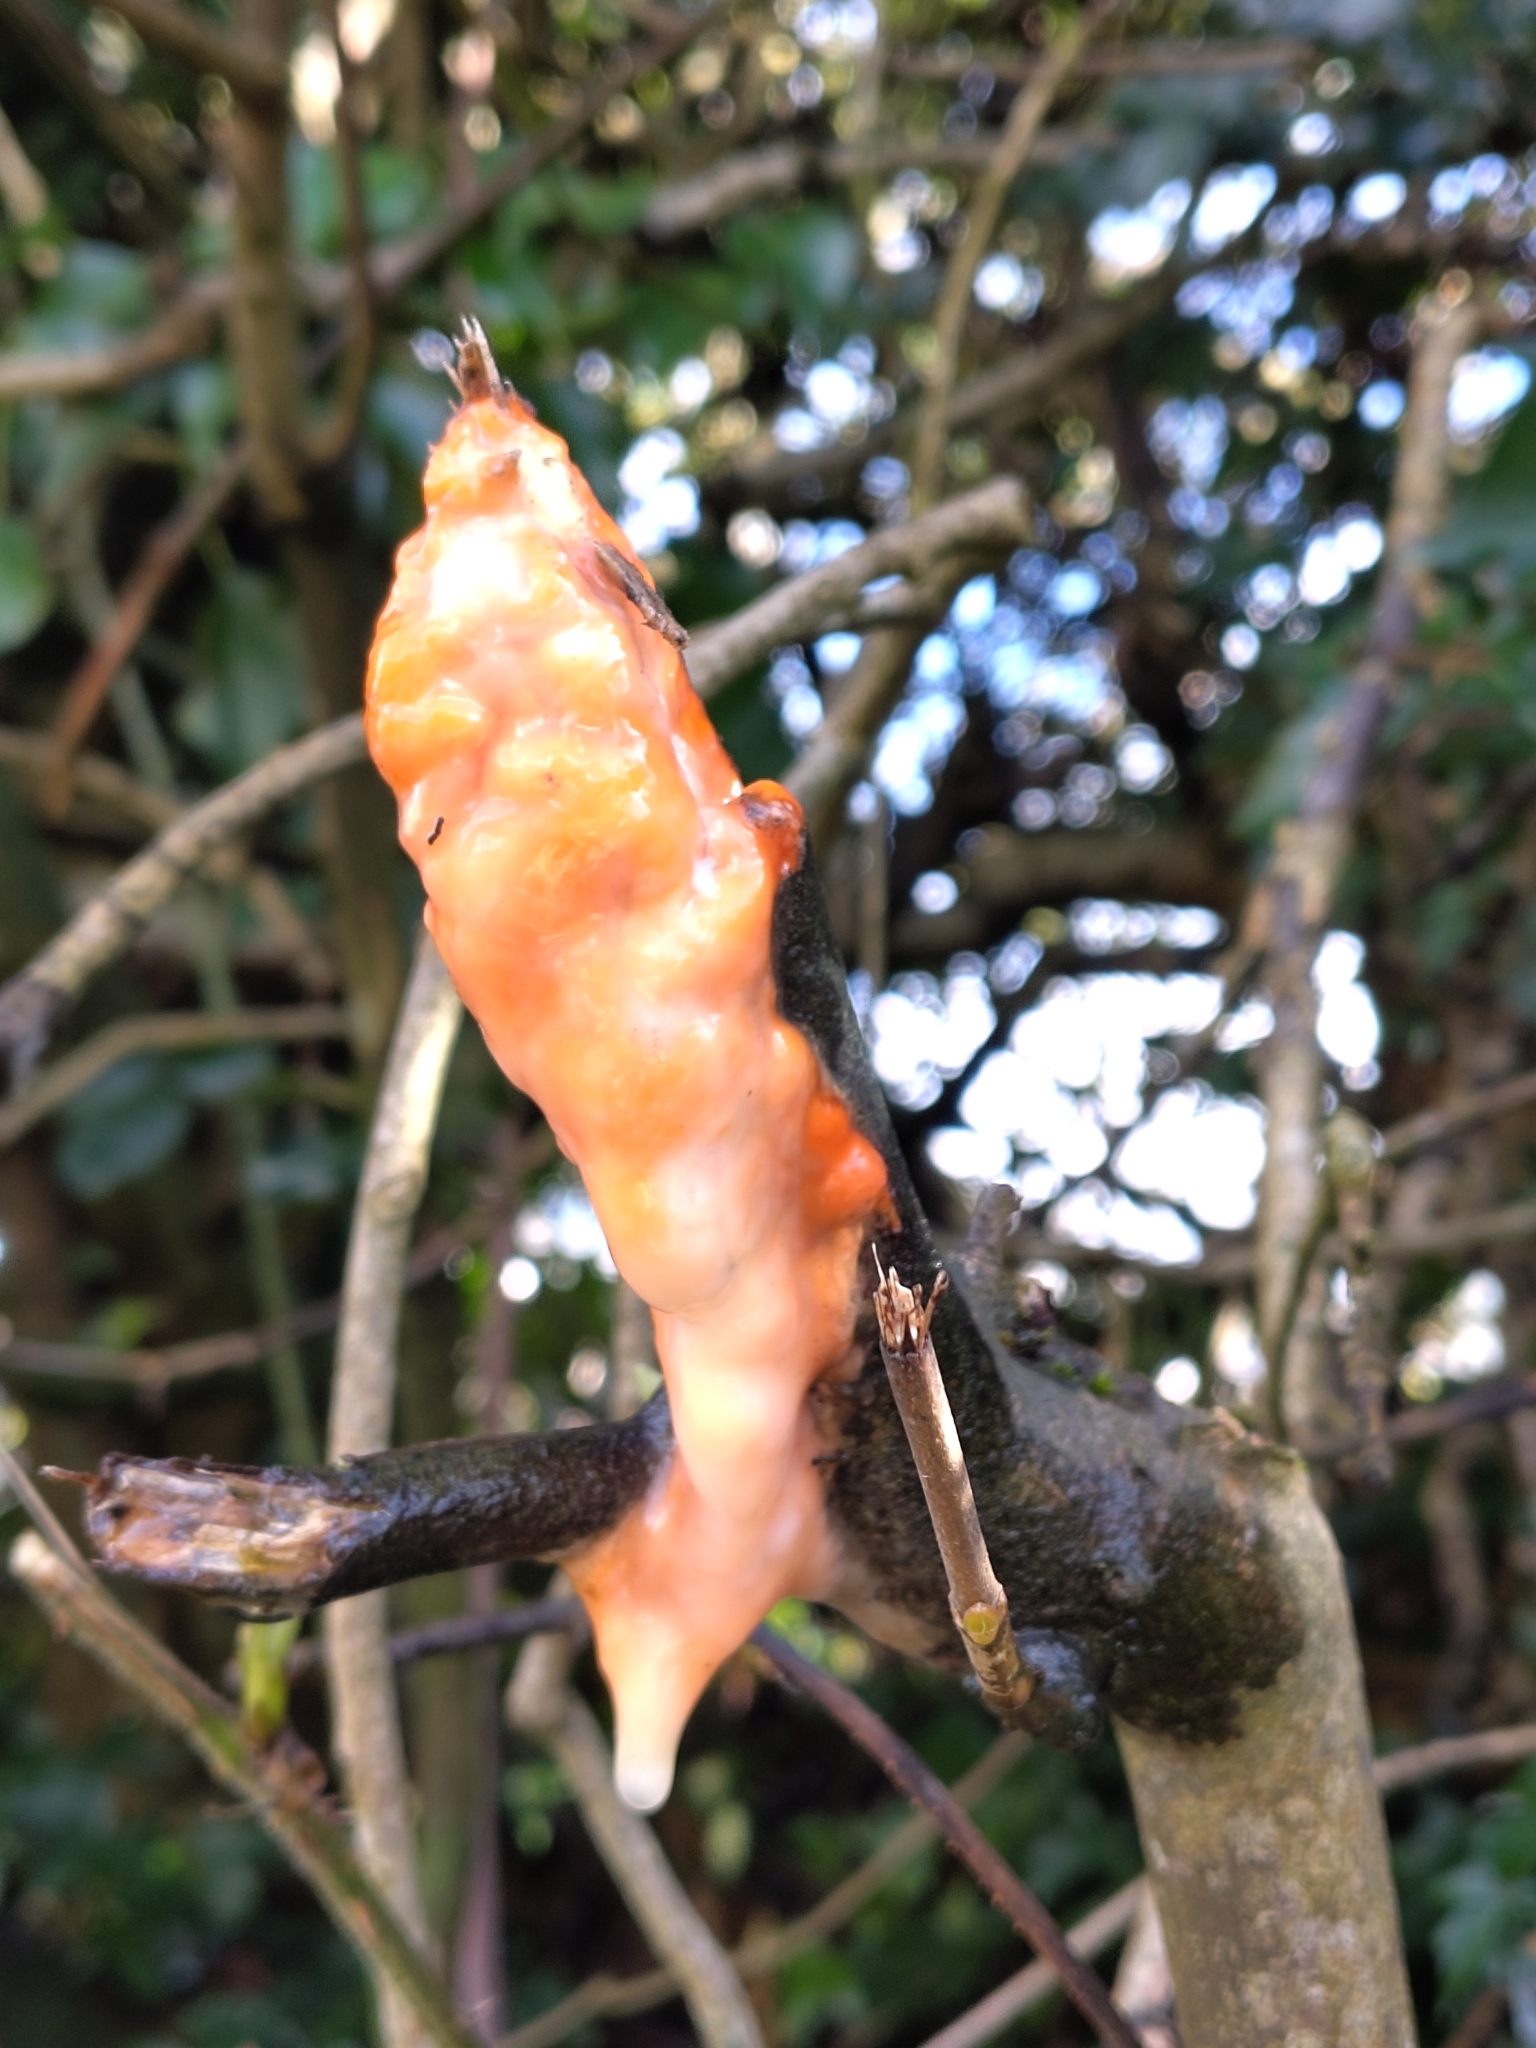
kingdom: Fungi
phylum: Ascomycota
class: Sordariomycetes
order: Hypocreales
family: Nectriaceae
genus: Fusicolla
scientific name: Fusicolla merismoides
